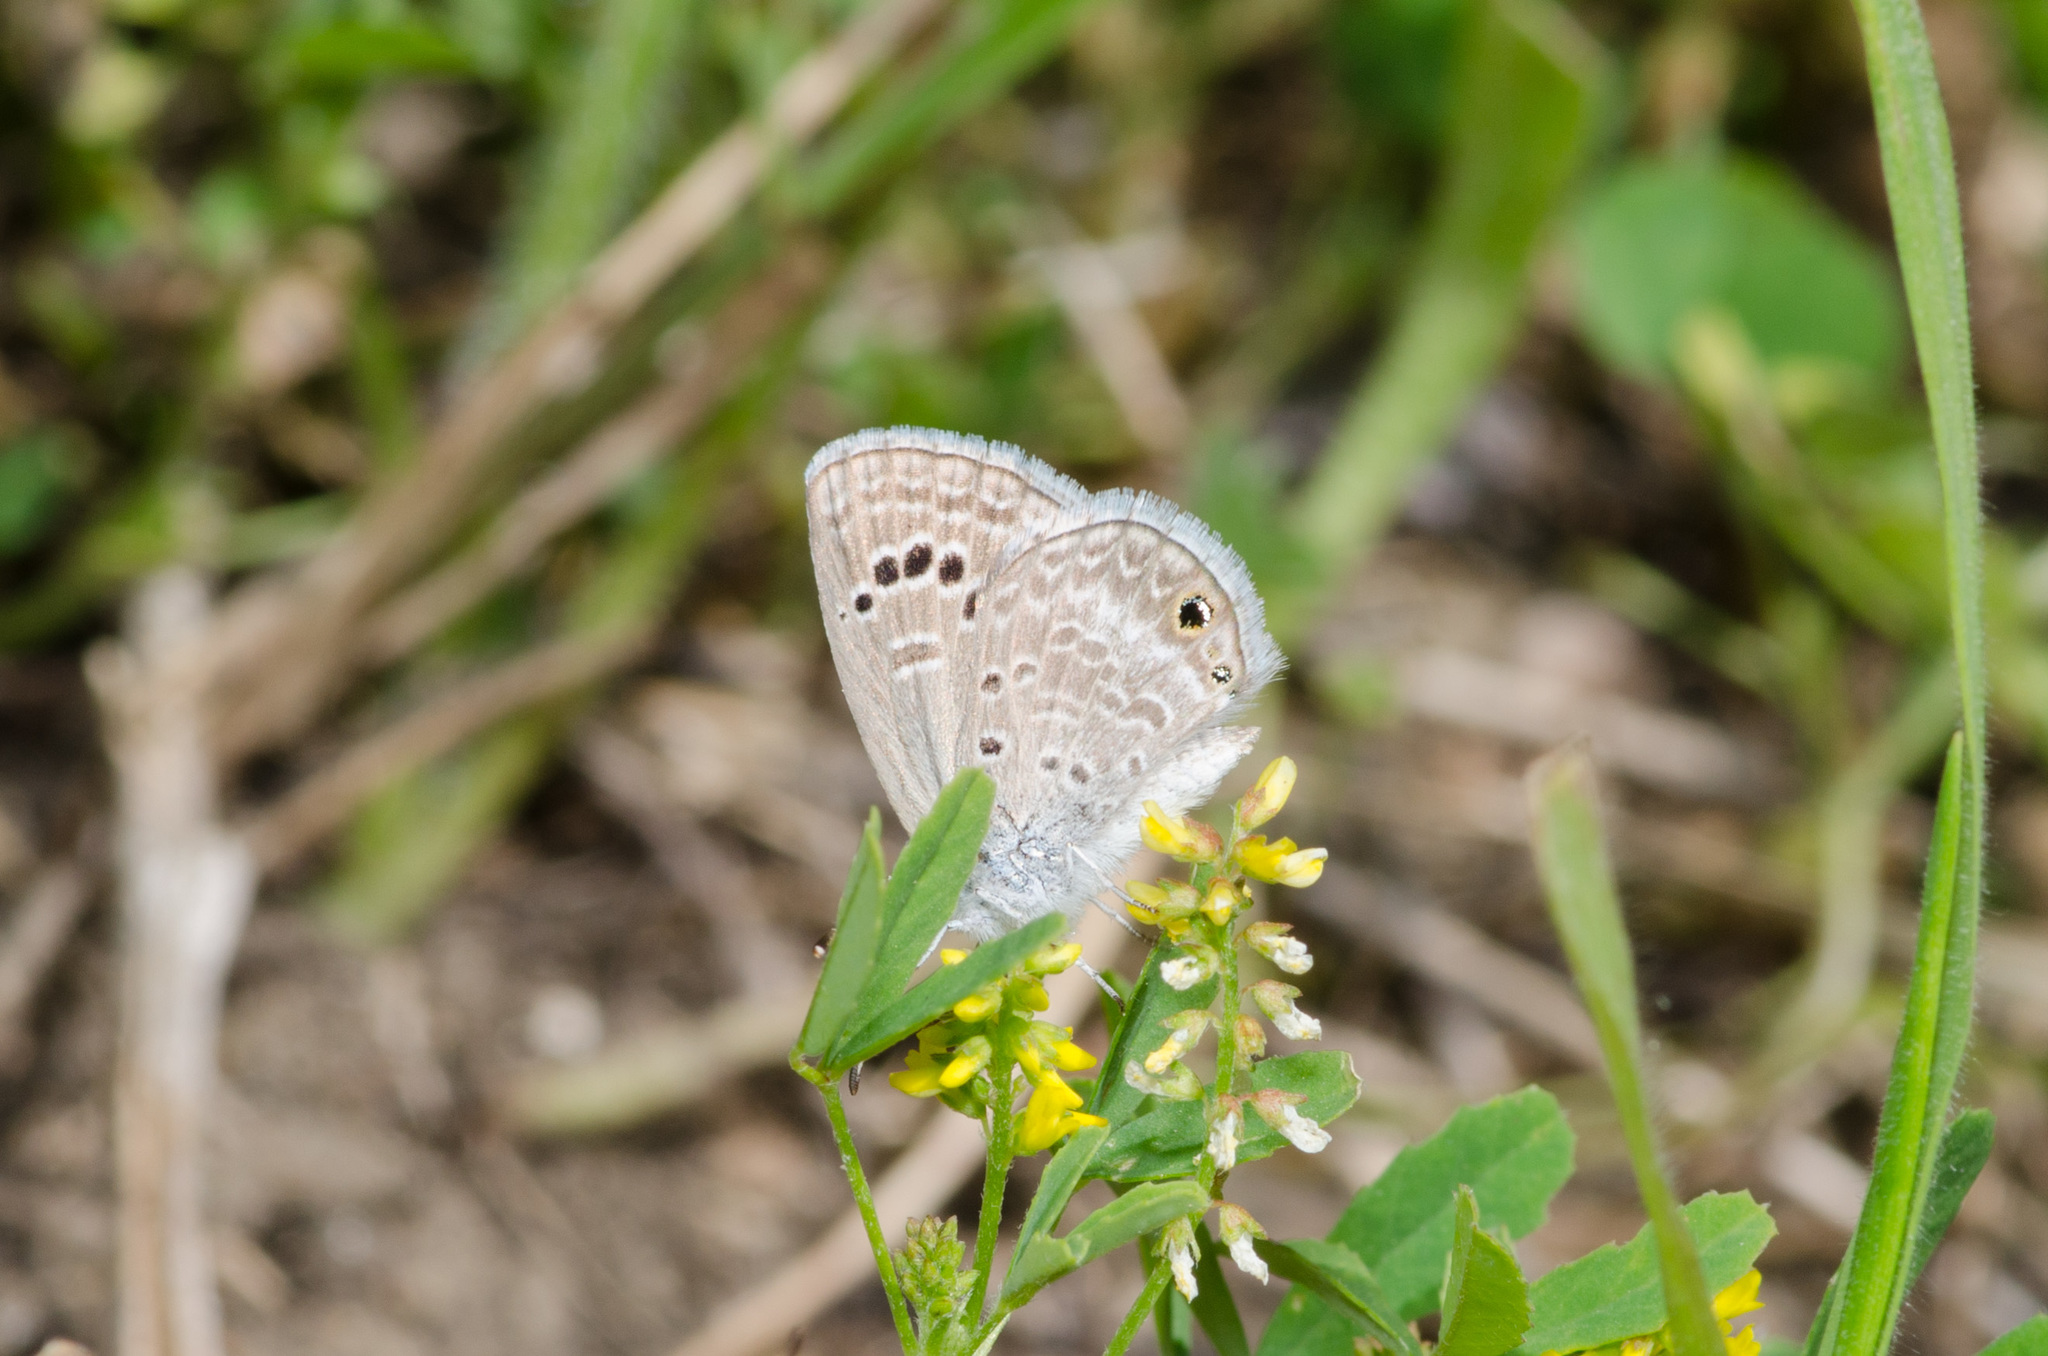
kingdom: Animalia
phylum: Arthropoda
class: Insecta
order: Lepidoptera
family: Lycaenidae
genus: Echinargus
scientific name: Echinargus isola
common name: Reakirt's blue
